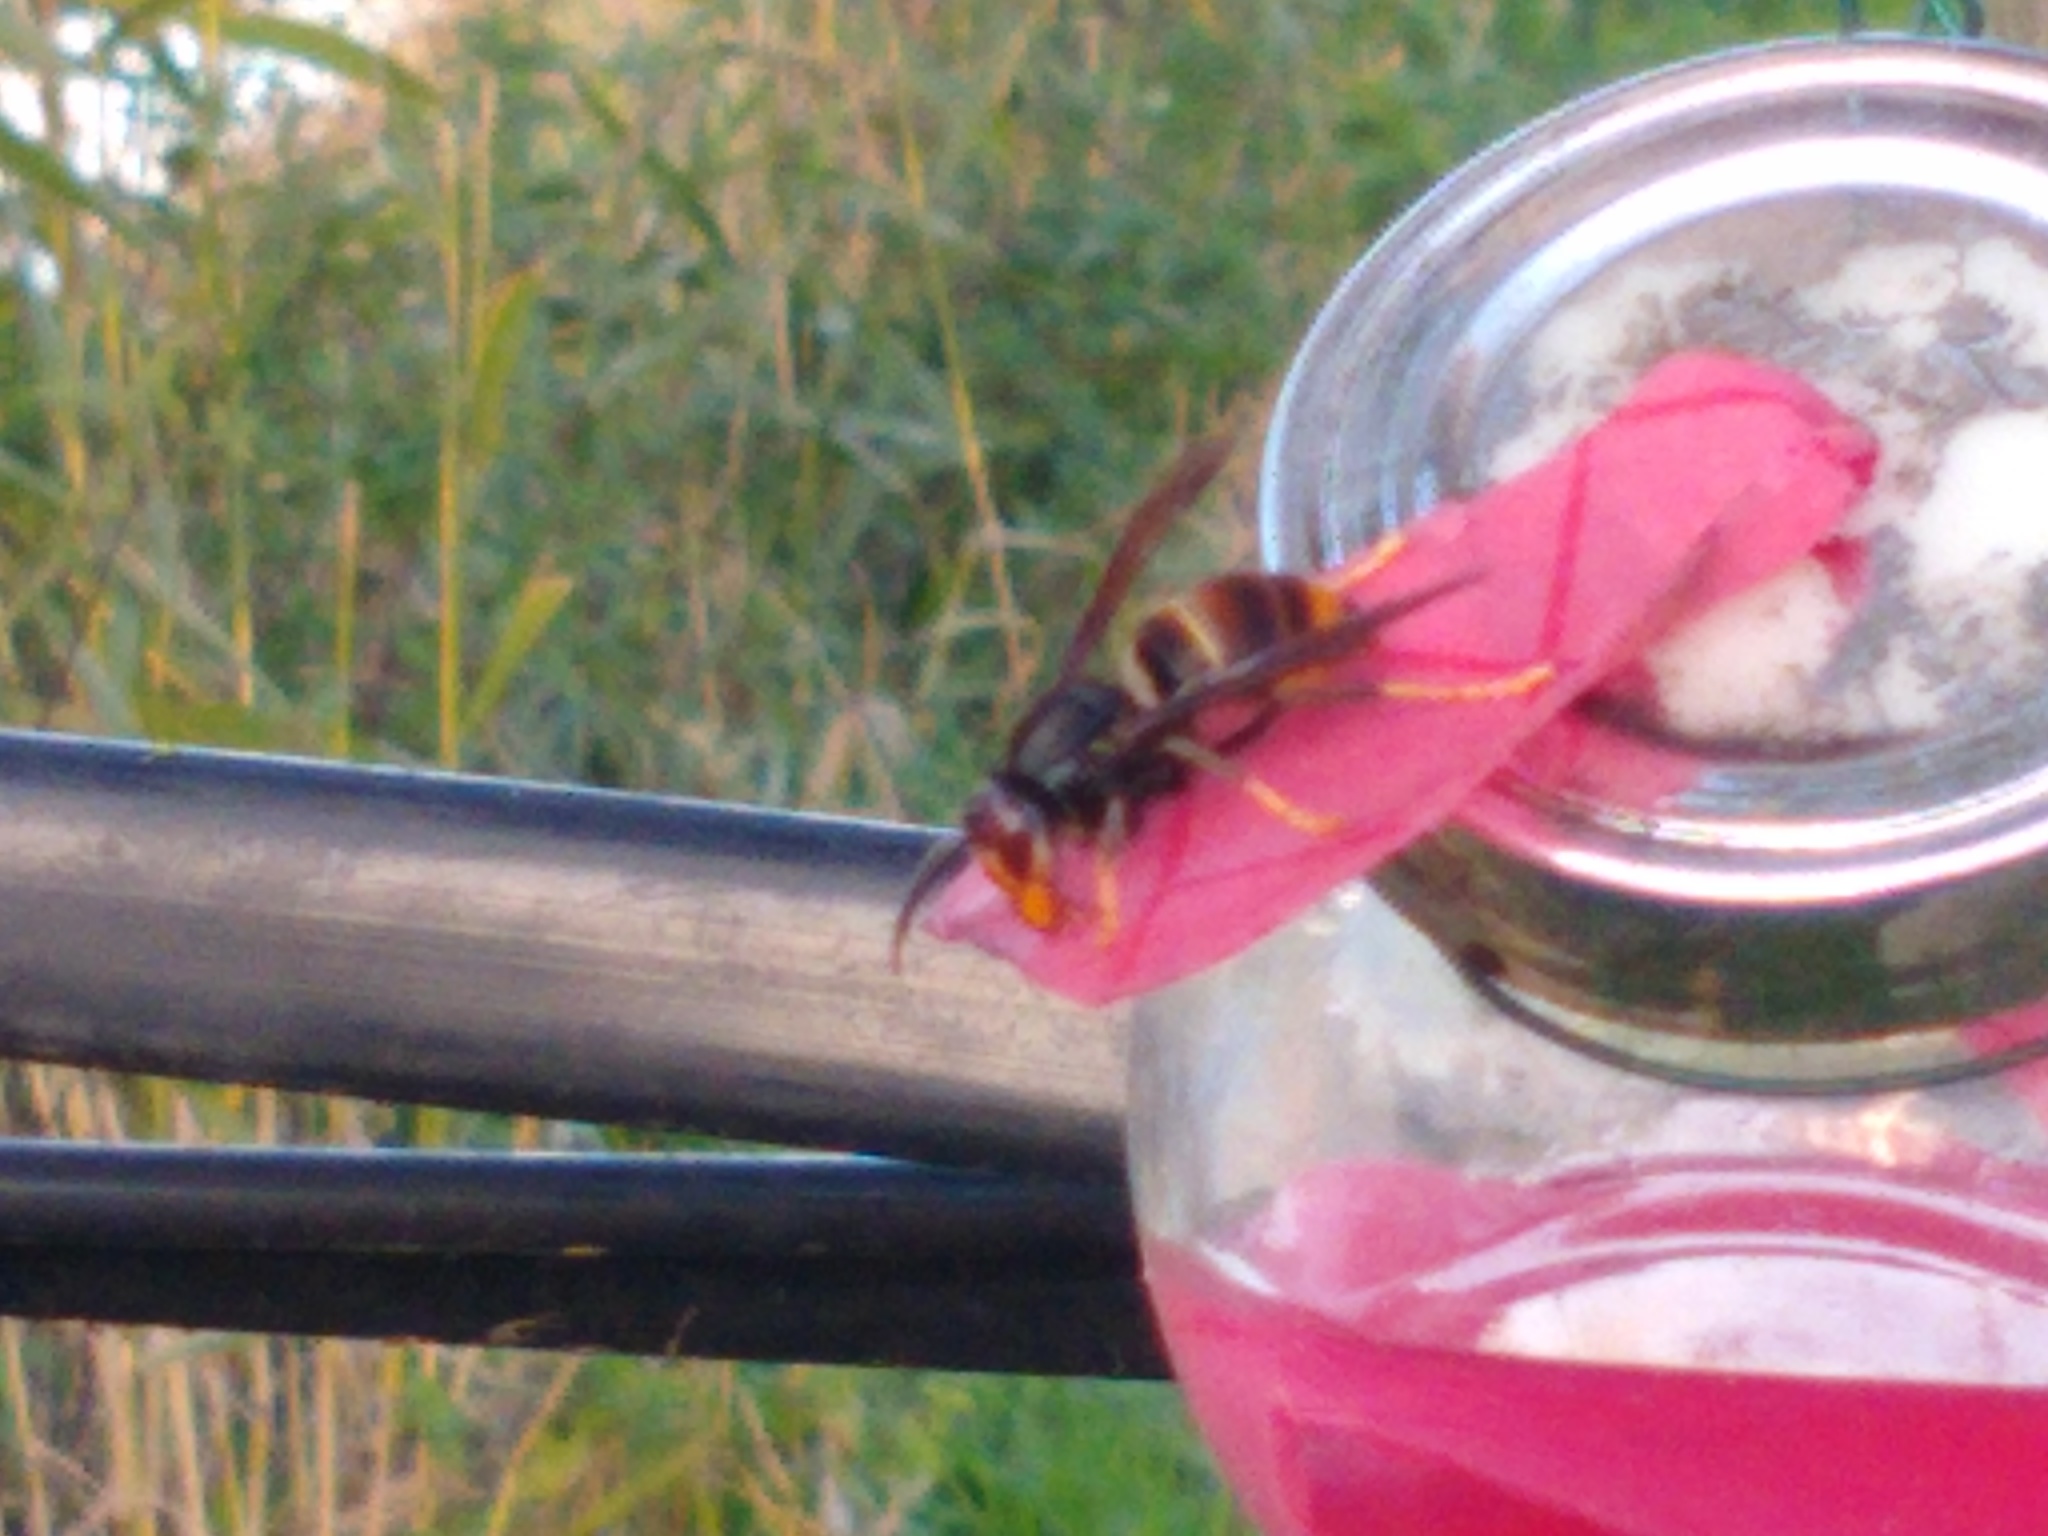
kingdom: Animalia
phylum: Arthropoda
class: Insecta
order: Hymenoptera
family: Vespidae
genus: Vespa
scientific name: Vespa velutina
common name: Asian hornet
